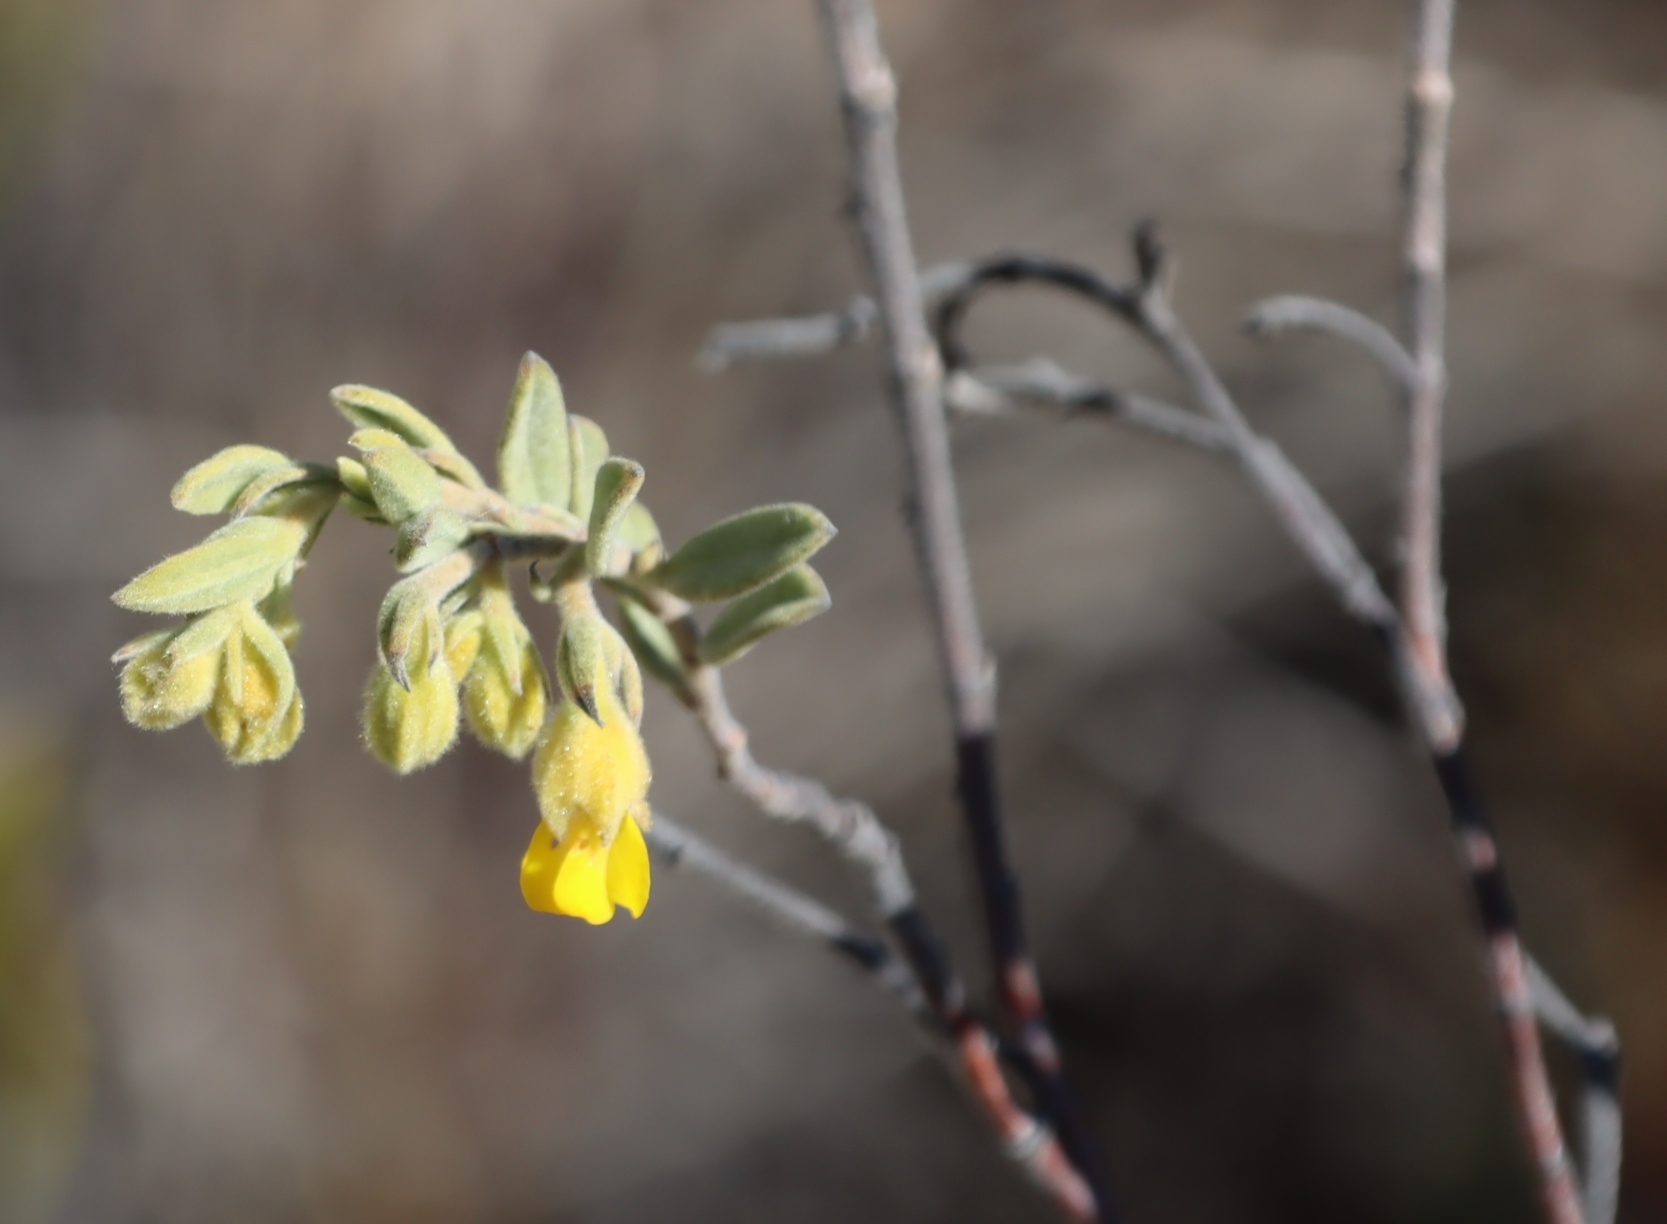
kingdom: Plantae
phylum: Tracheophyta
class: Magnoliopsida
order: Malvales
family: Malvaceae
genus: Hermannia
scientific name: Hermannia velutina
